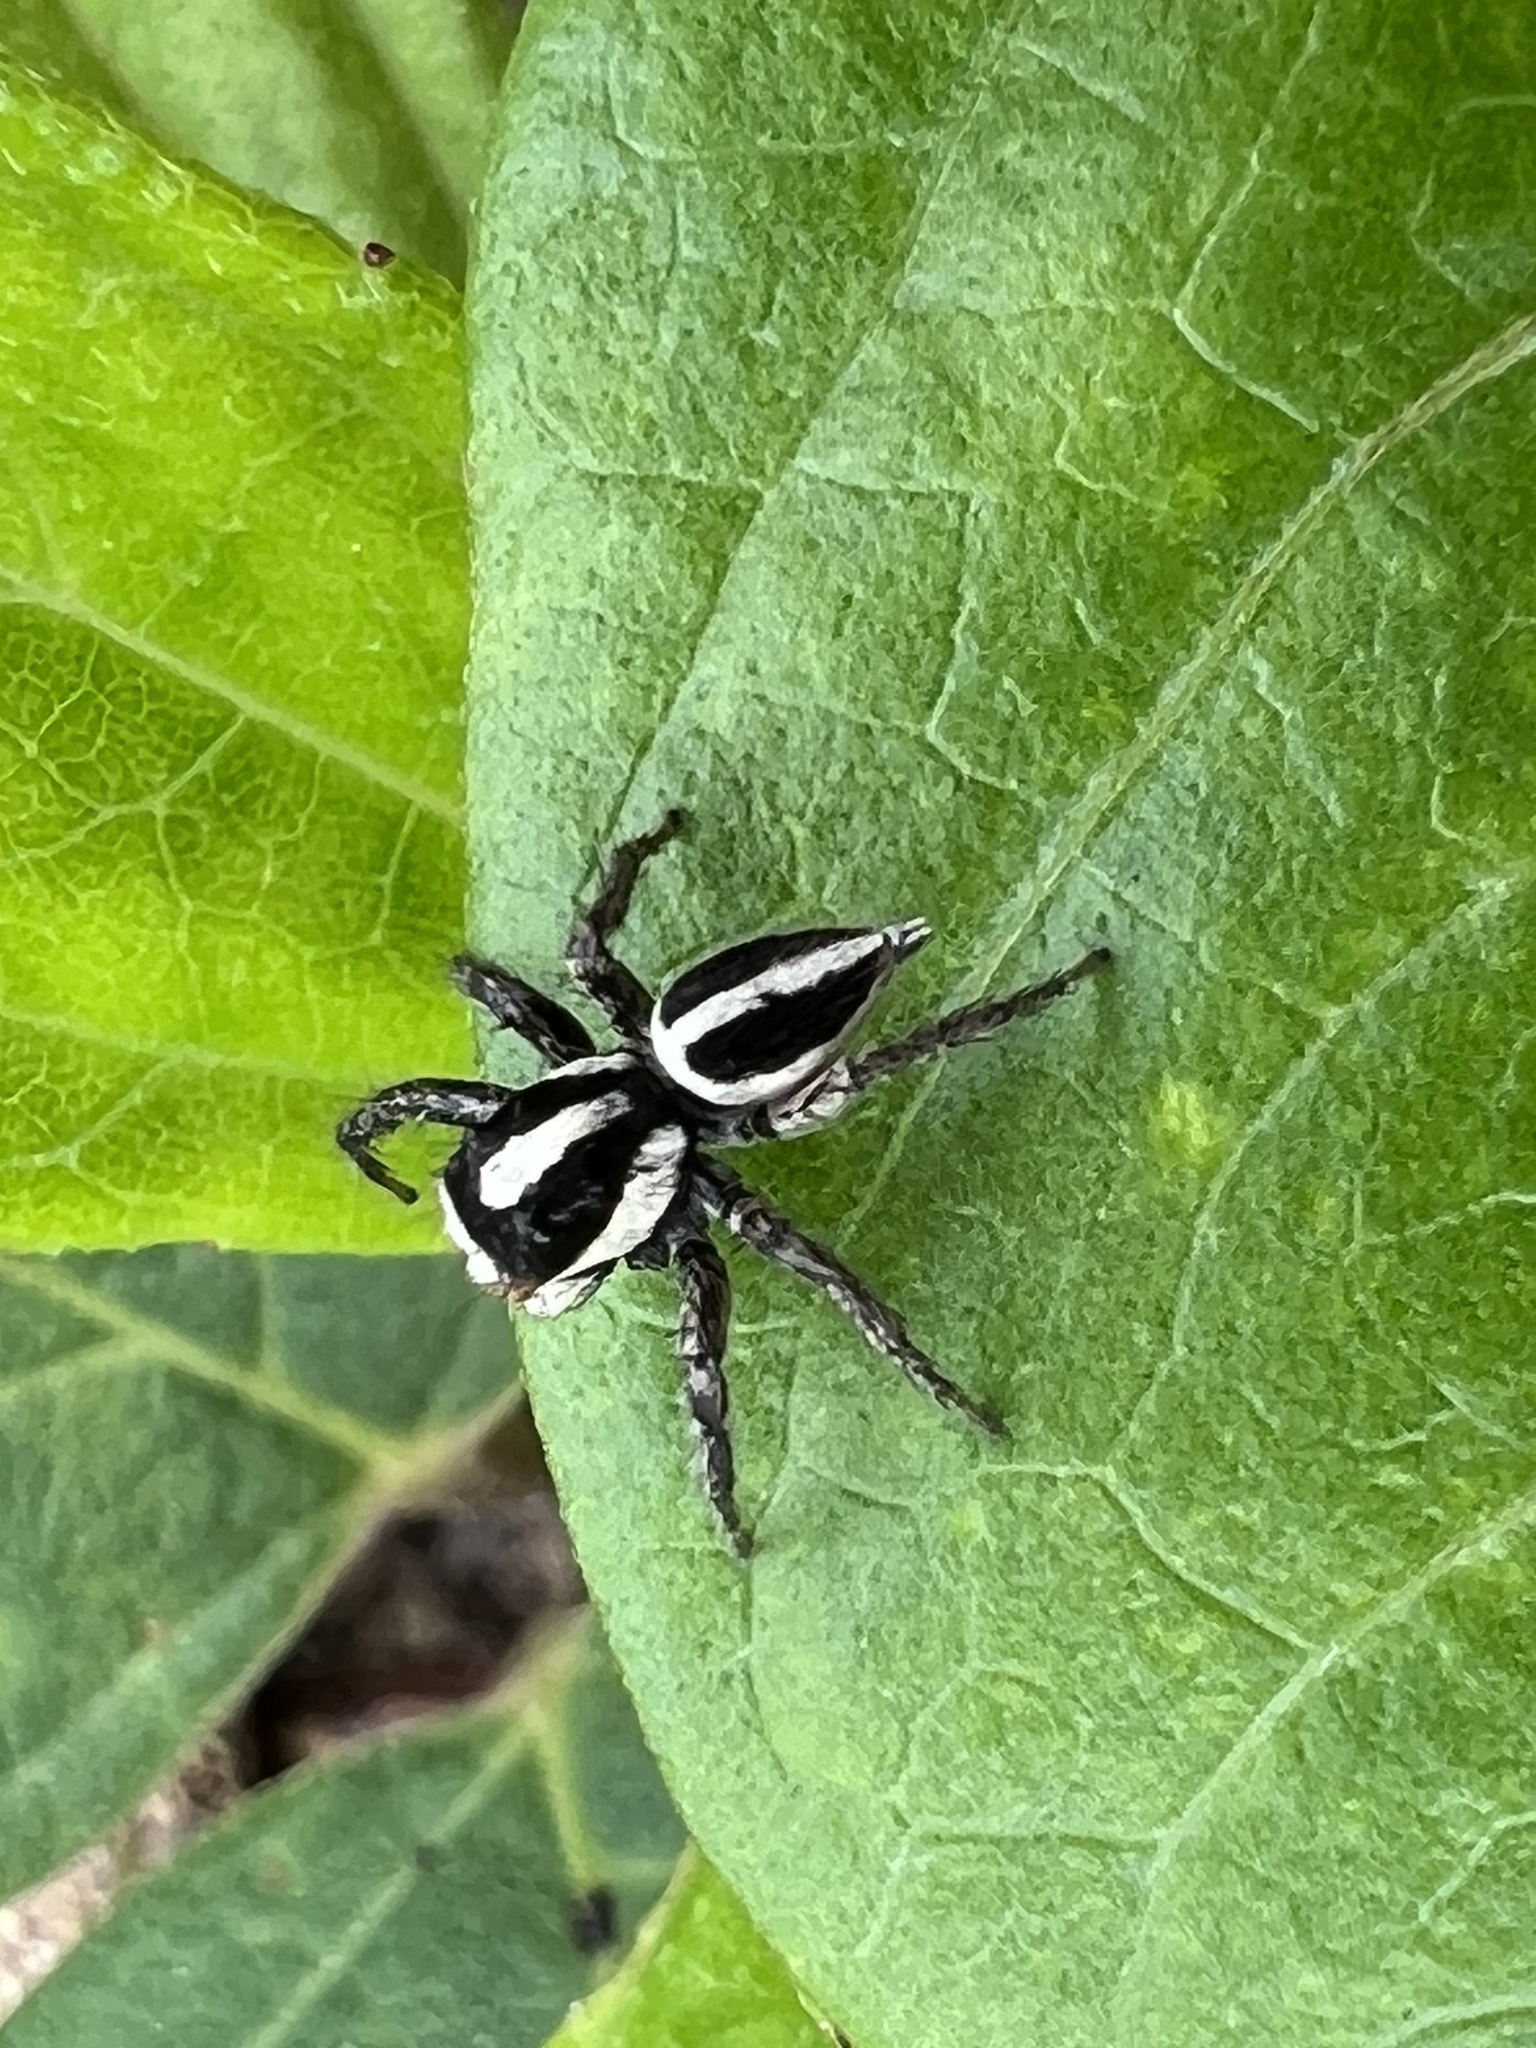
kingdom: Animalia
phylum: Arthropoda
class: Arachnida
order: Araneae
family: Salticidae
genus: Leptofreya
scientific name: Leptofreya ambigua
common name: Jumping spider
